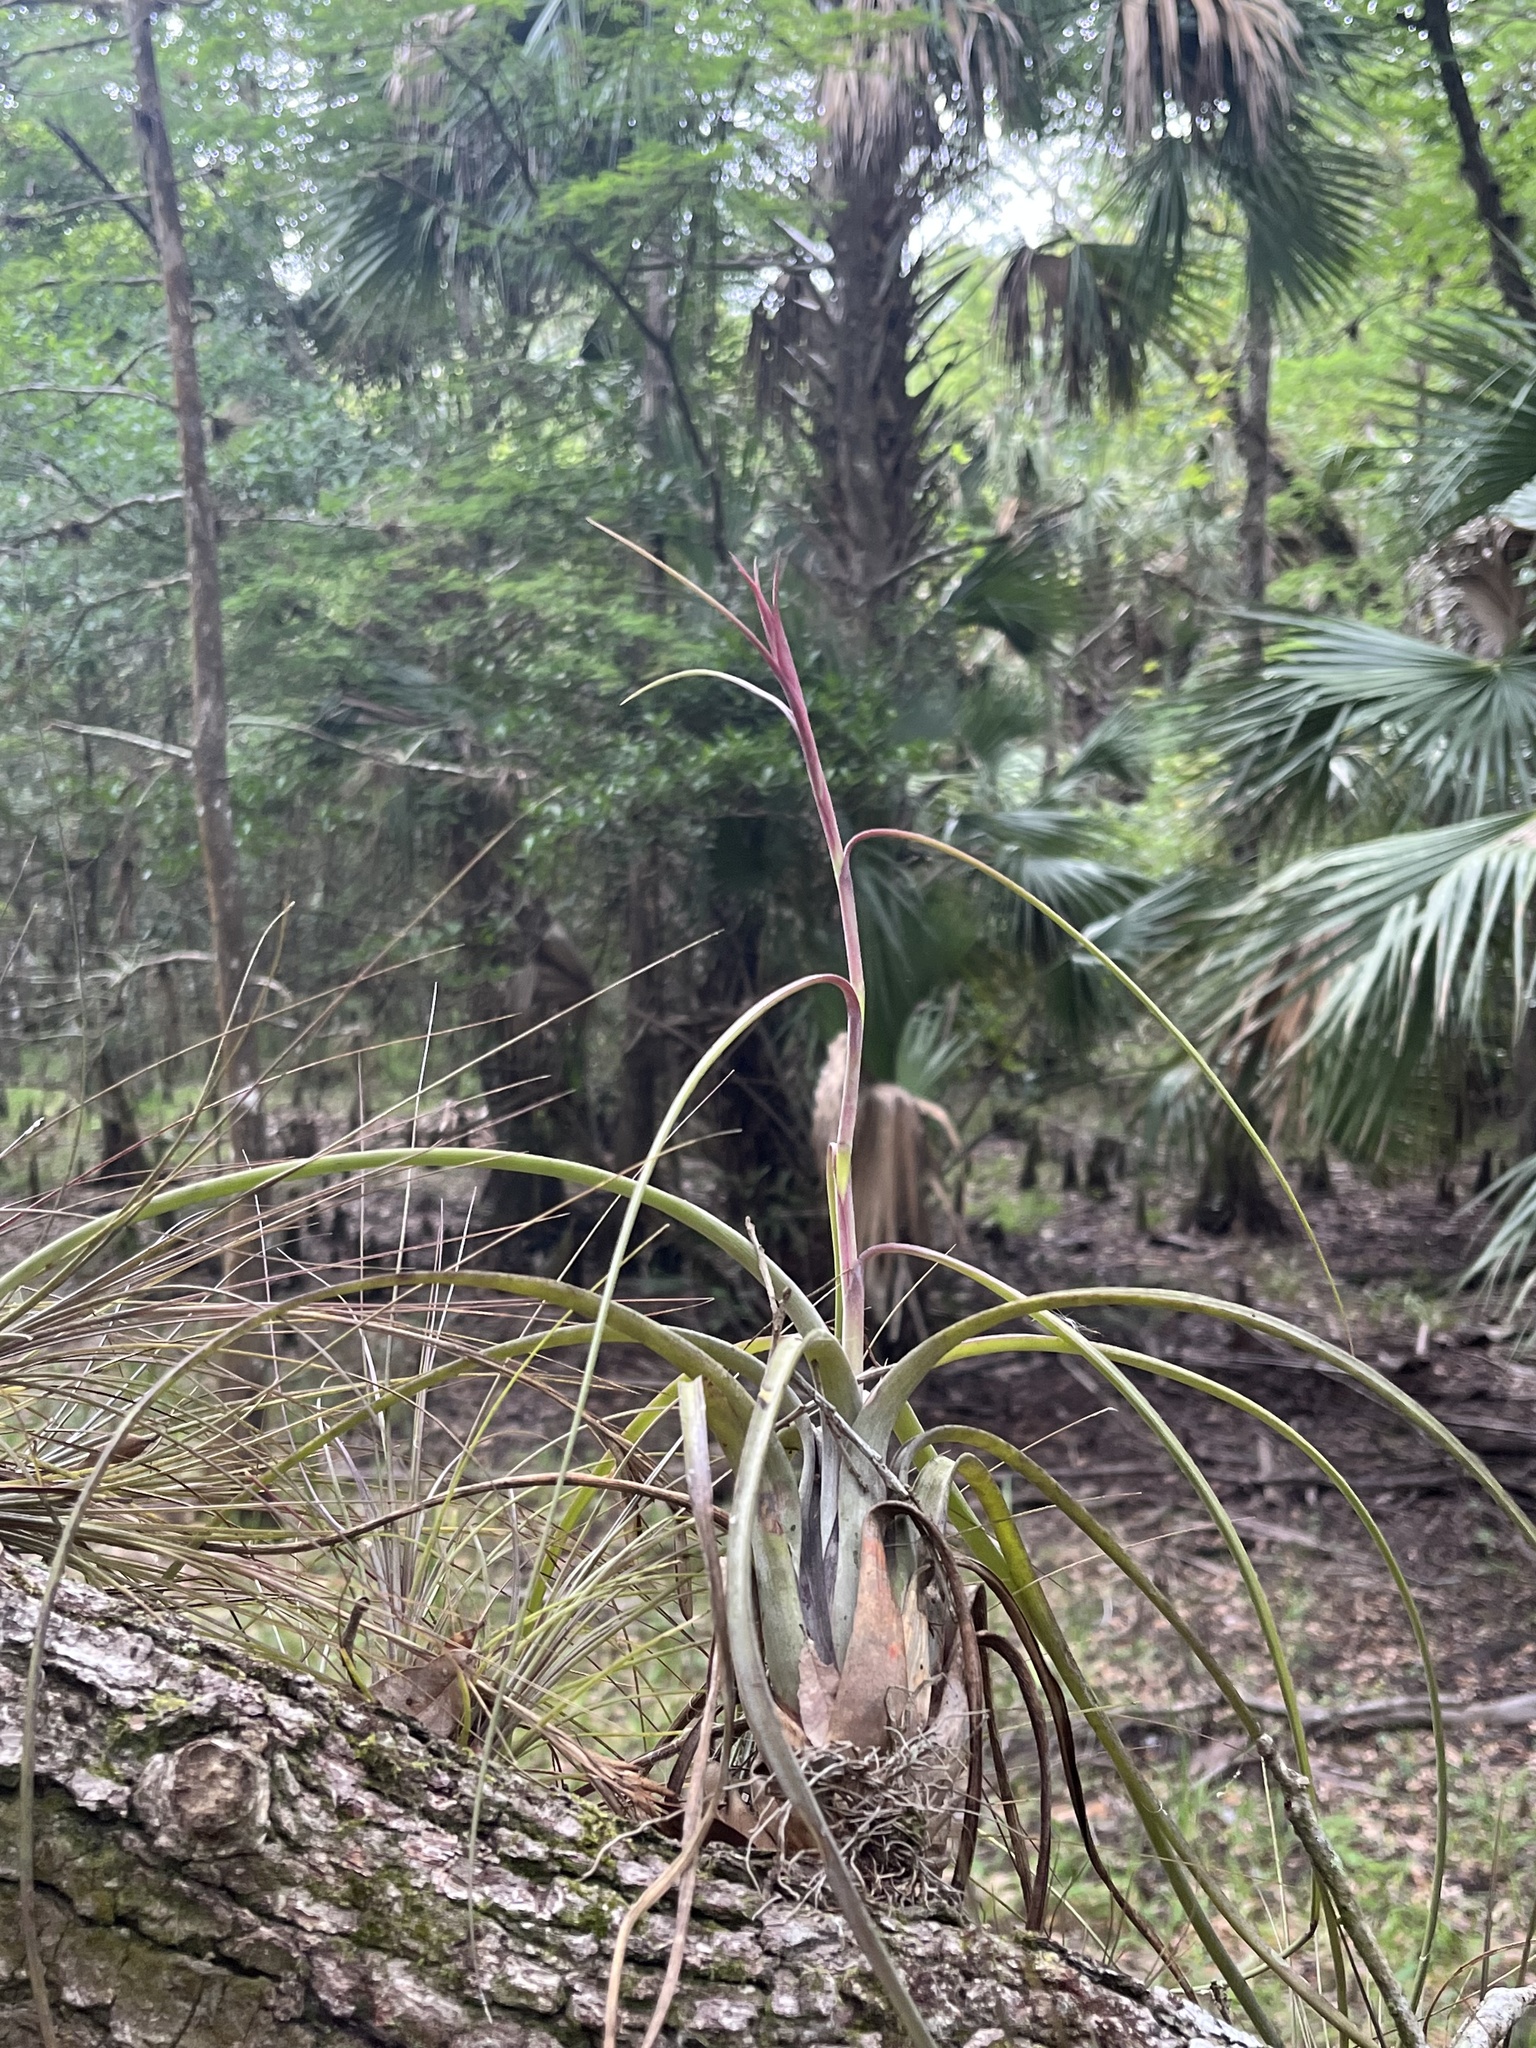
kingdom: Plantae
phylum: Tracheophyta
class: Liliopsida
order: Poales
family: Bromeliaceae
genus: Tillandsia
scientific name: Tillandsia balbisiana
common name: Northern needleleaf
